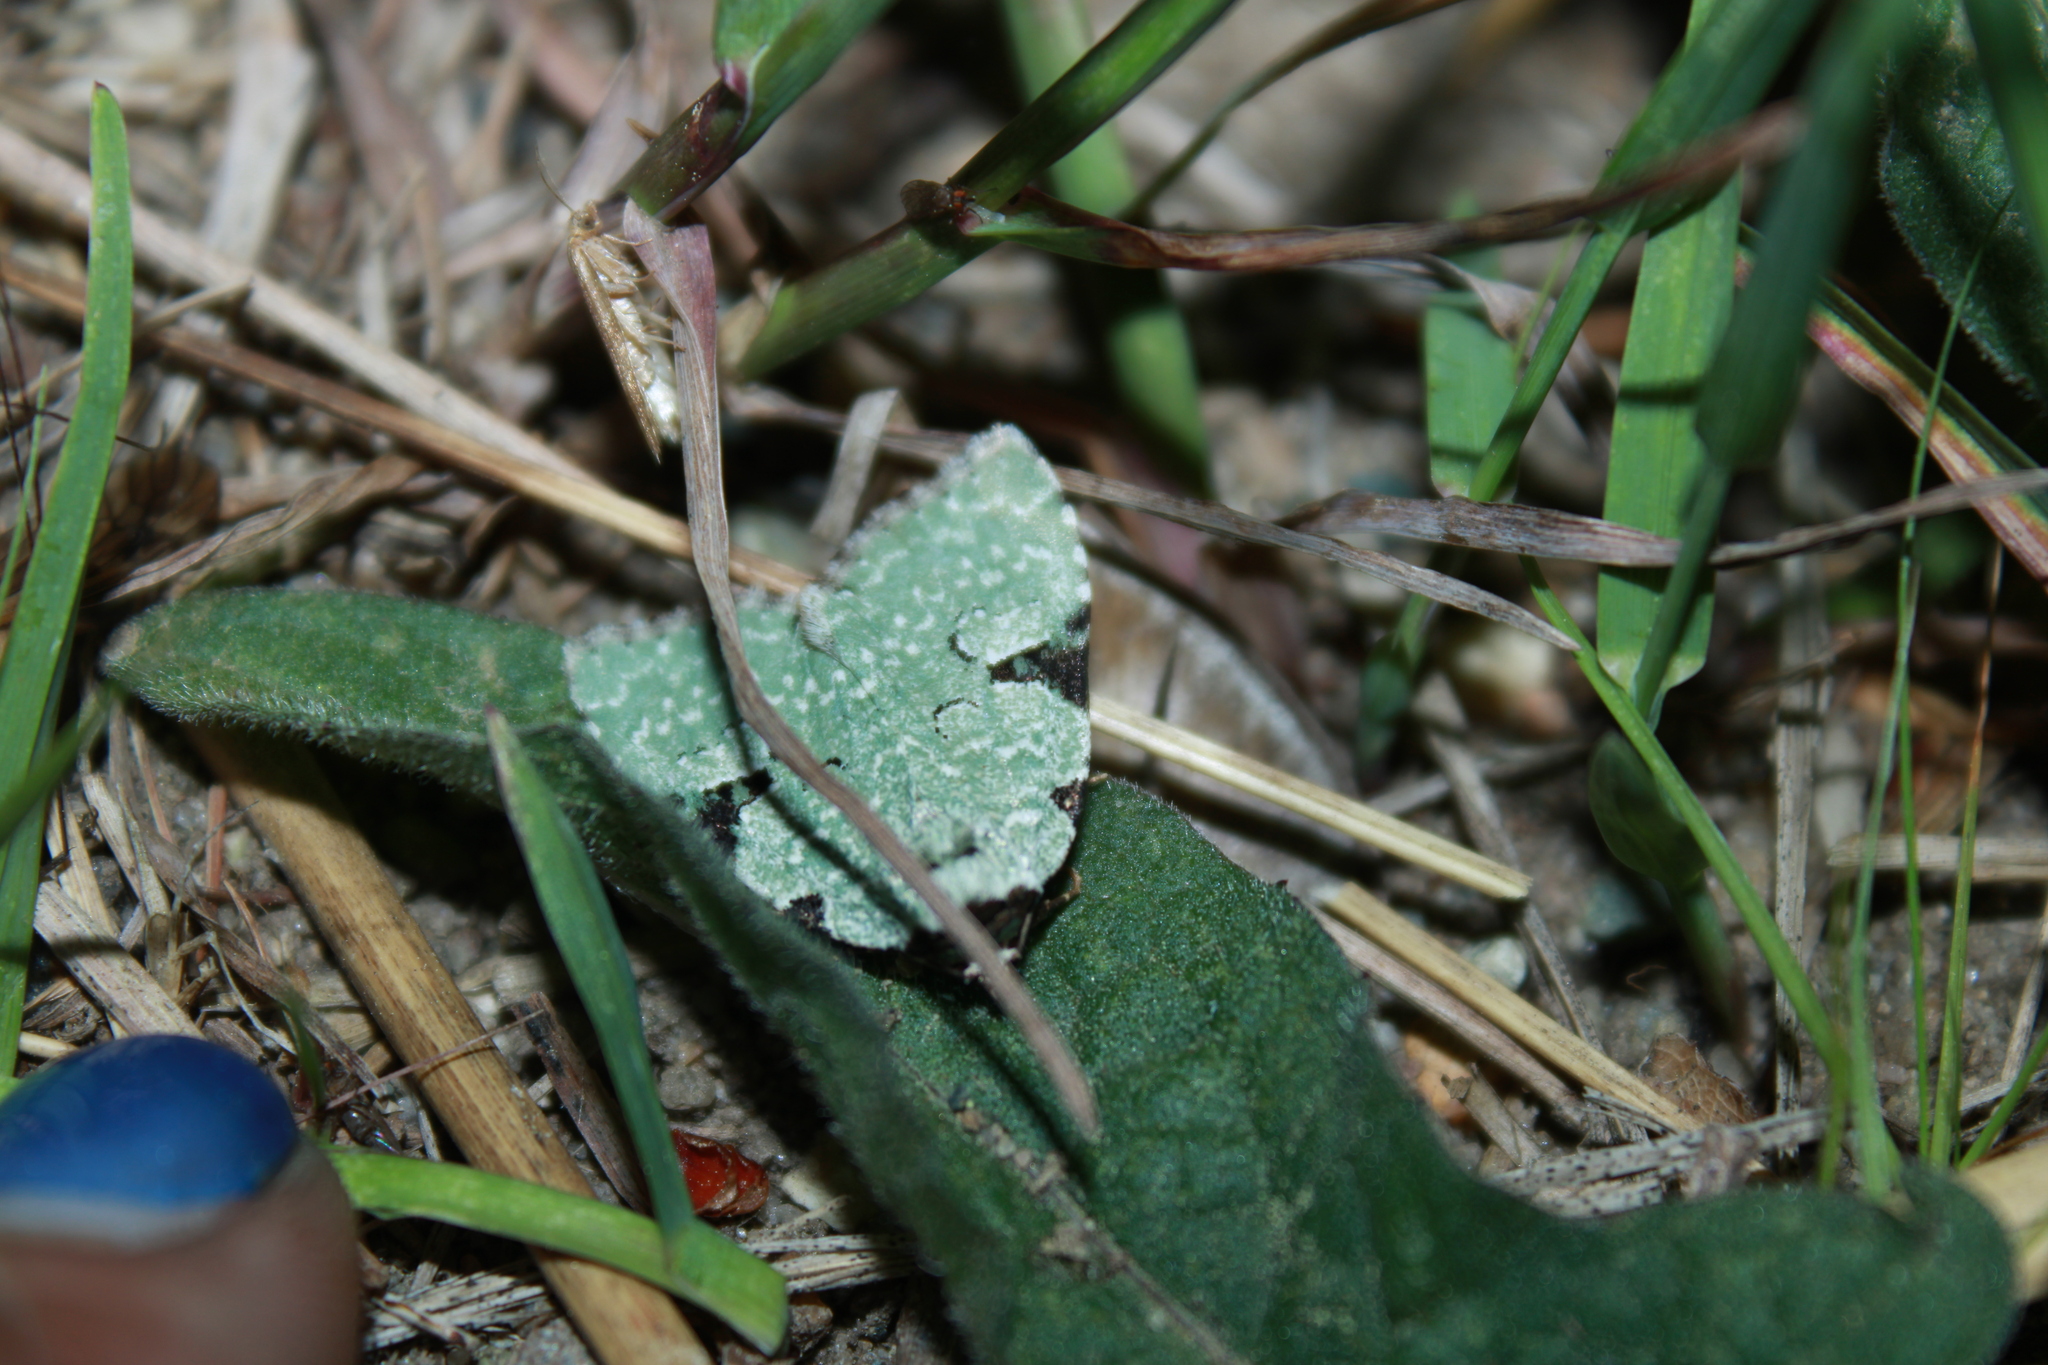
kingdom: Animalia
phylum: Arthropoda
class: Insecta
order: Lepidoptera
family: Noctuidae
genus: Leuconycta
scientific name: Leuconycta diphteroides
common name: Green leuconycta moth
